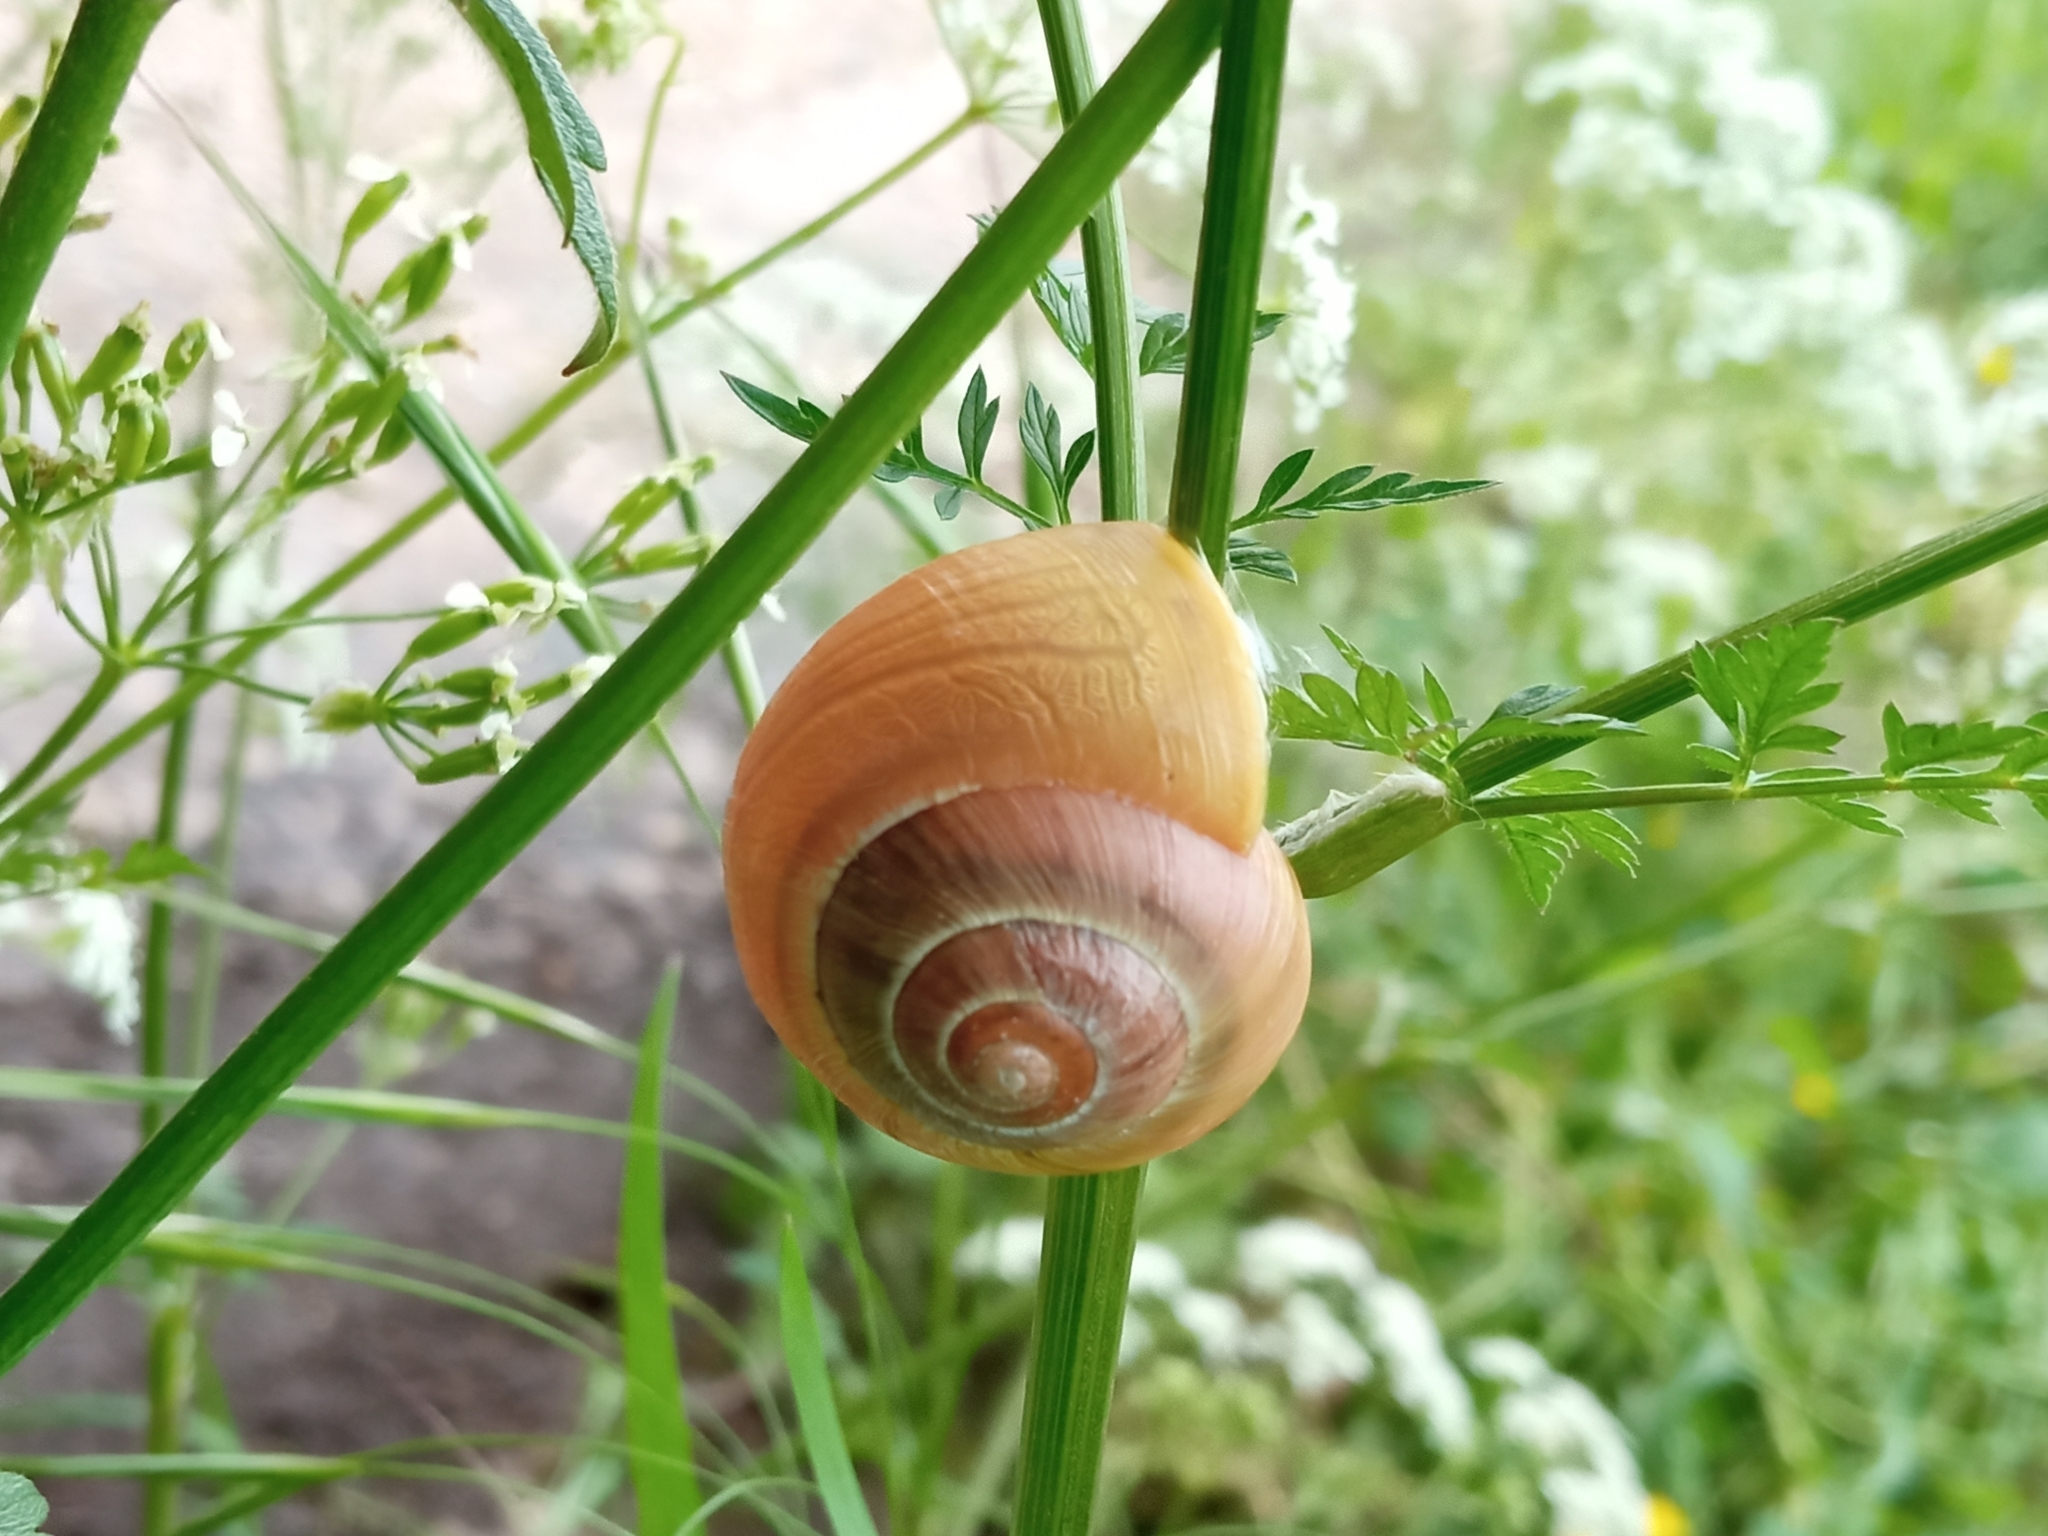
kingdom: Animalia
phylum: Mollusca
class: Gastropoda
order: Stylommatophora
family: Helicidae
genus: Cepaea
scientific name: Cepaea
